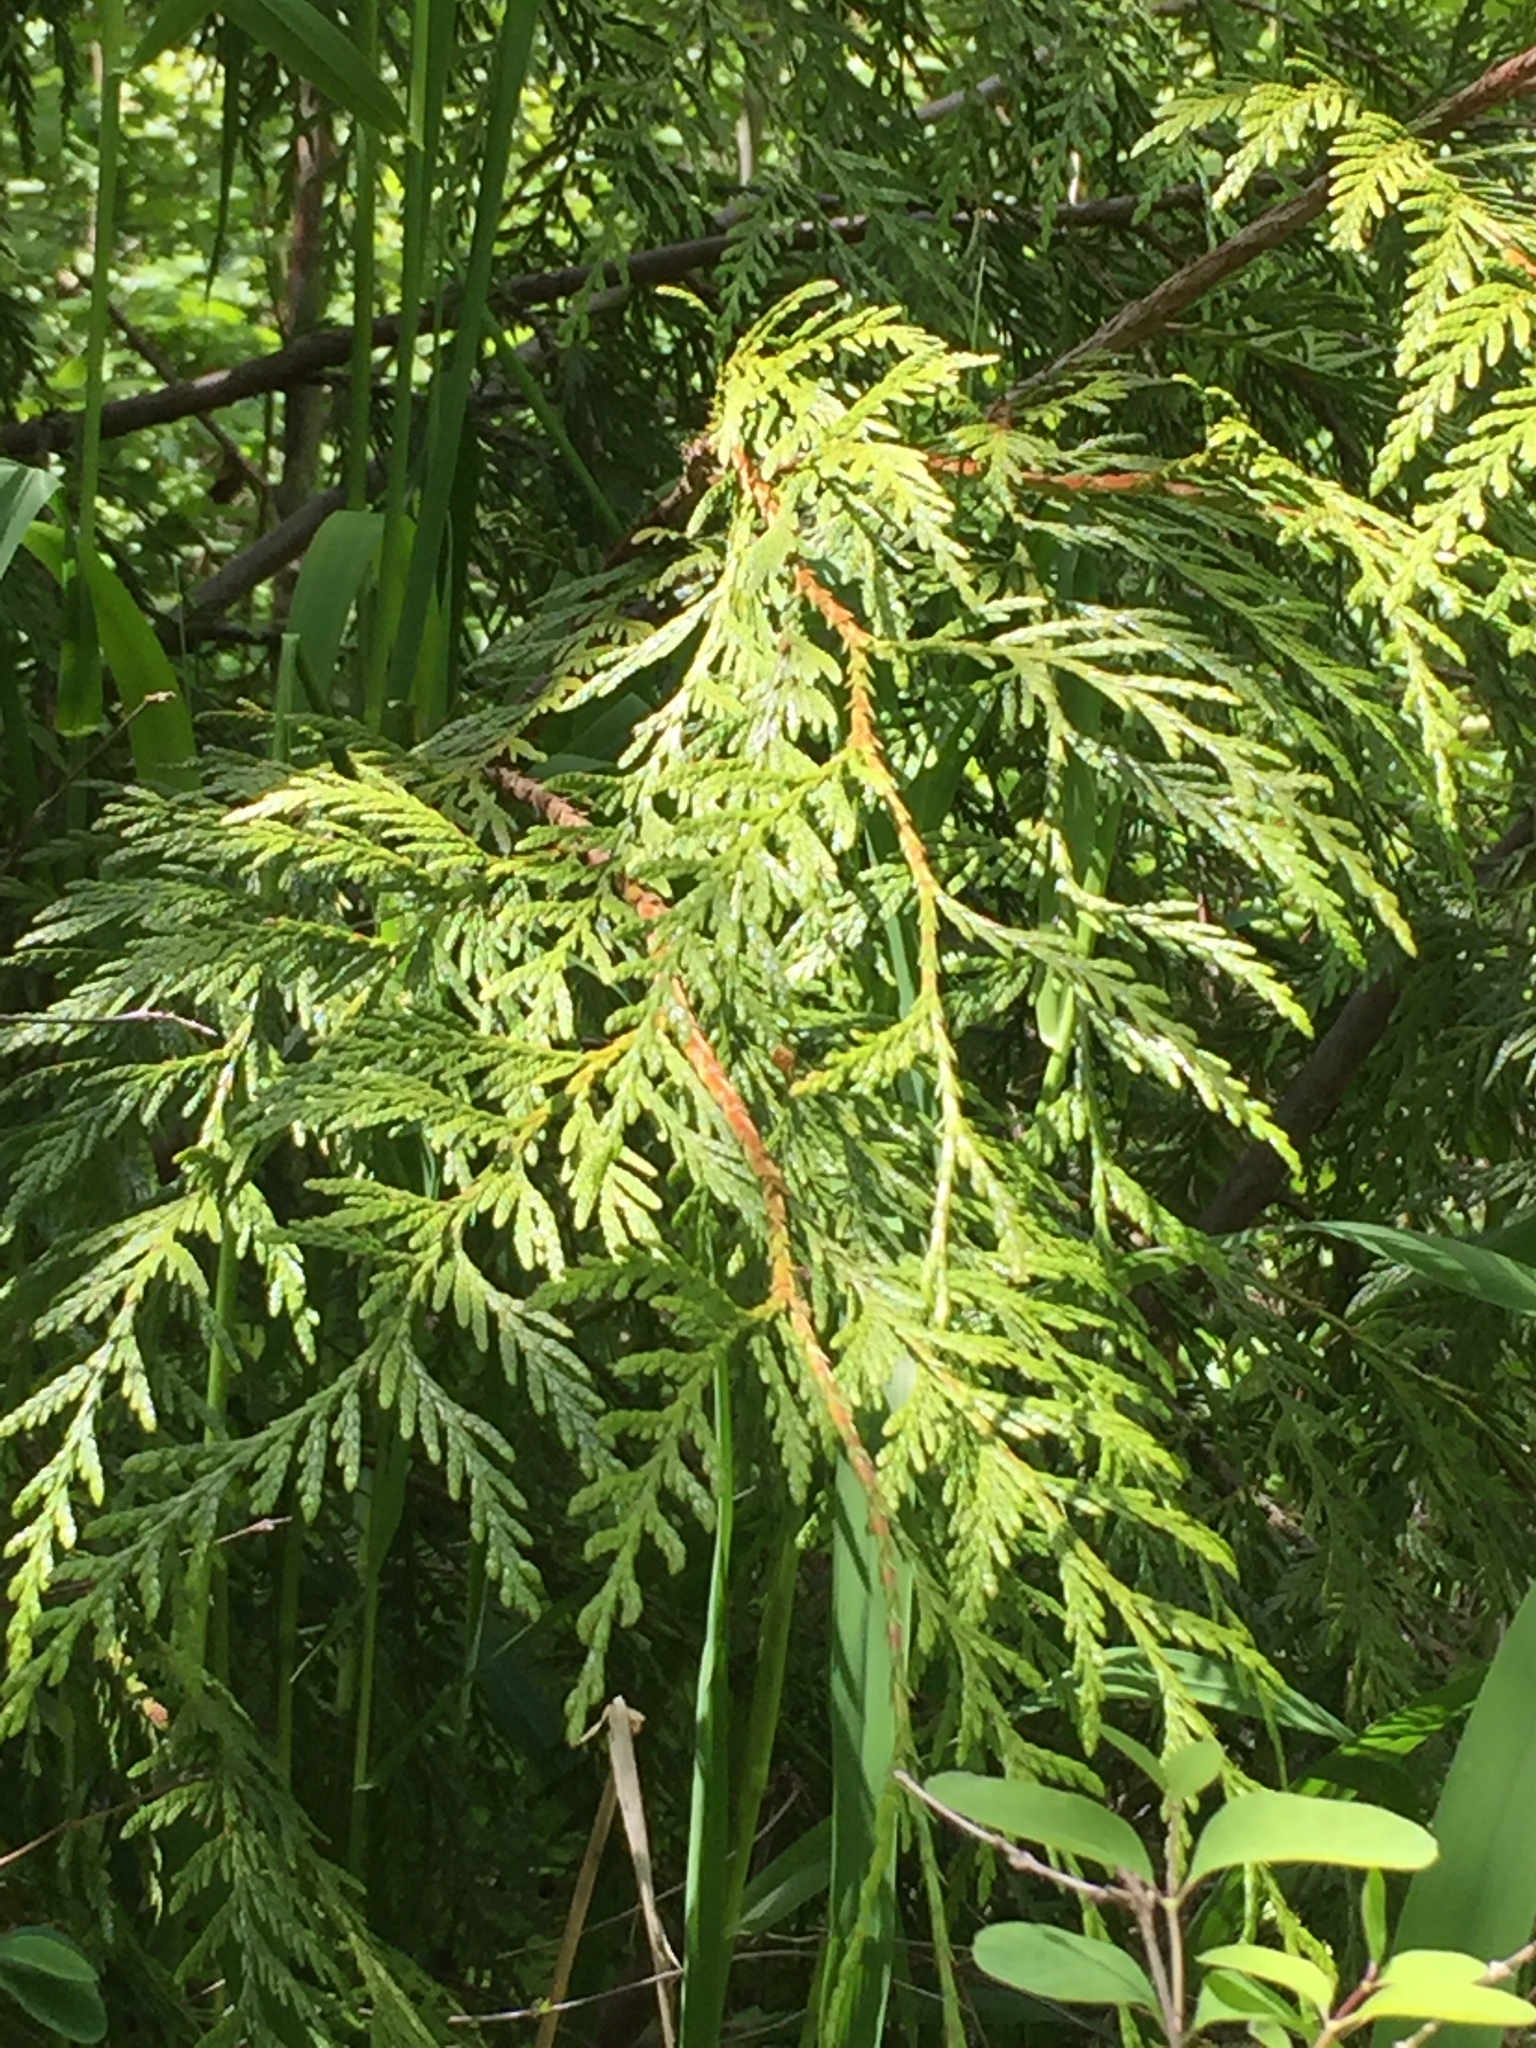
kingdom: Plantae
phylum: Tracheophyta
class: Pinopsida
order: Pinales
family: Cupressaceae
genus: Thuja
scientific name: Thuja plicata
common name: Western red-cedar
